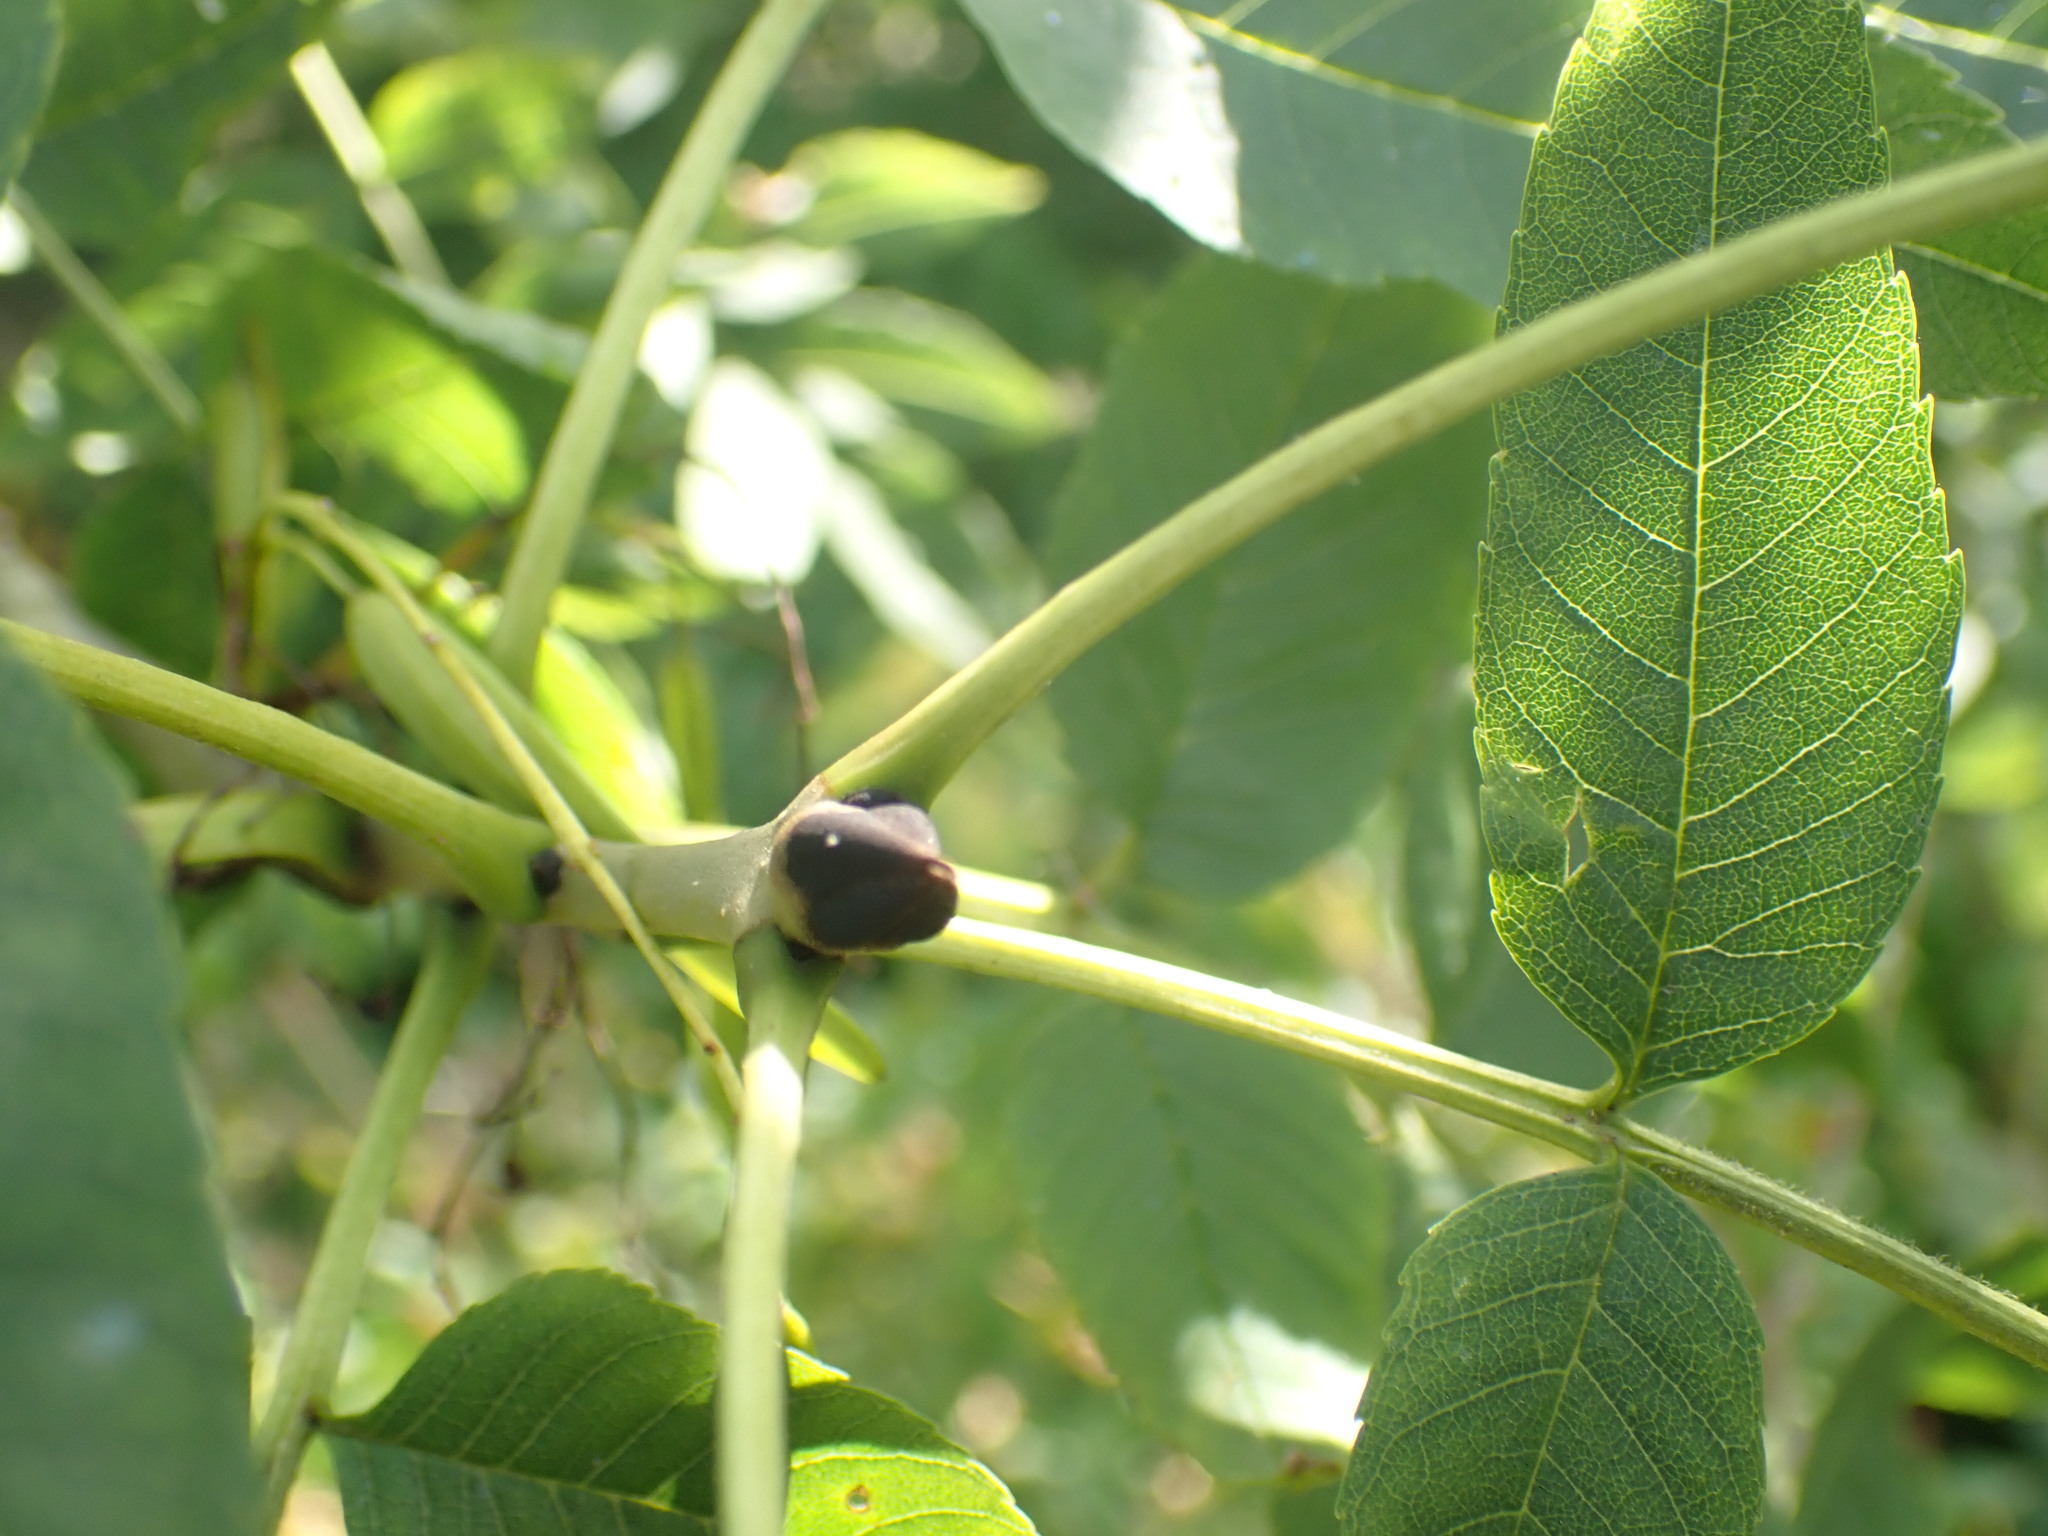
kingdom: Plantae
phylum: Tracheophyta
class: Magnoliopsida
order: Lamiales
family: Oleaceae
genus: Fraxinus
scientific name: Fraxinus excelsior
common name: European ash
